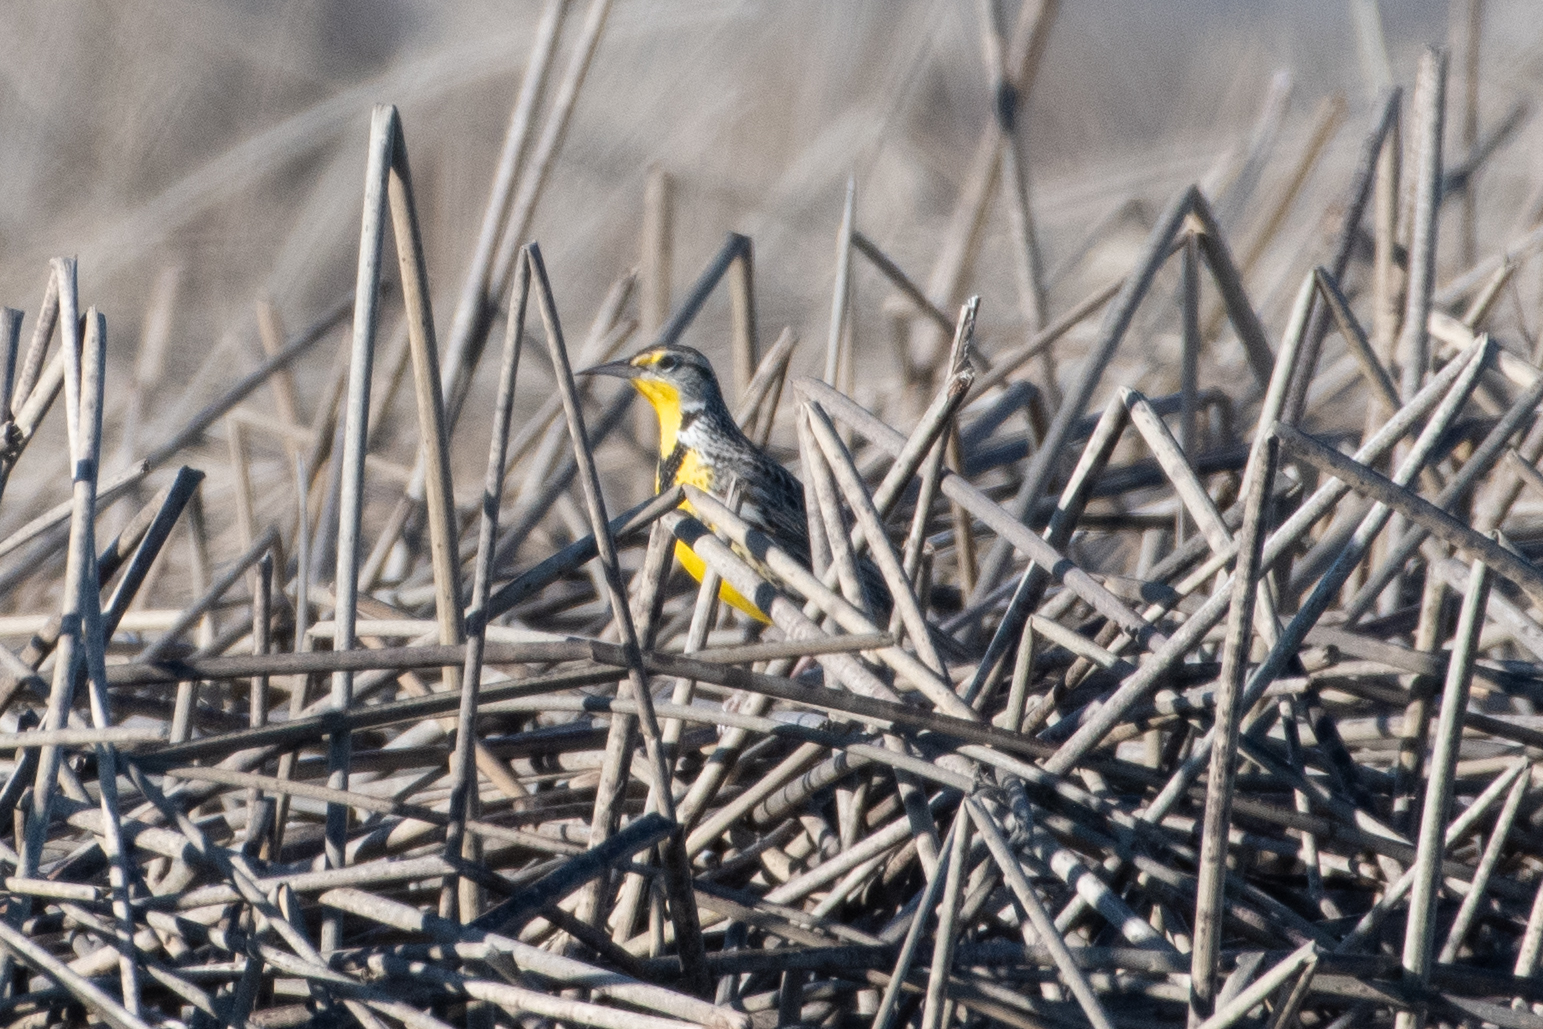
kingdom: Animalia
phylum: Chordata
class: Aves
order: Passeriformes
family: Icteridae
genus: Sturnella
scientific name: Sturnella neglecta
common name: Western meadowlark
